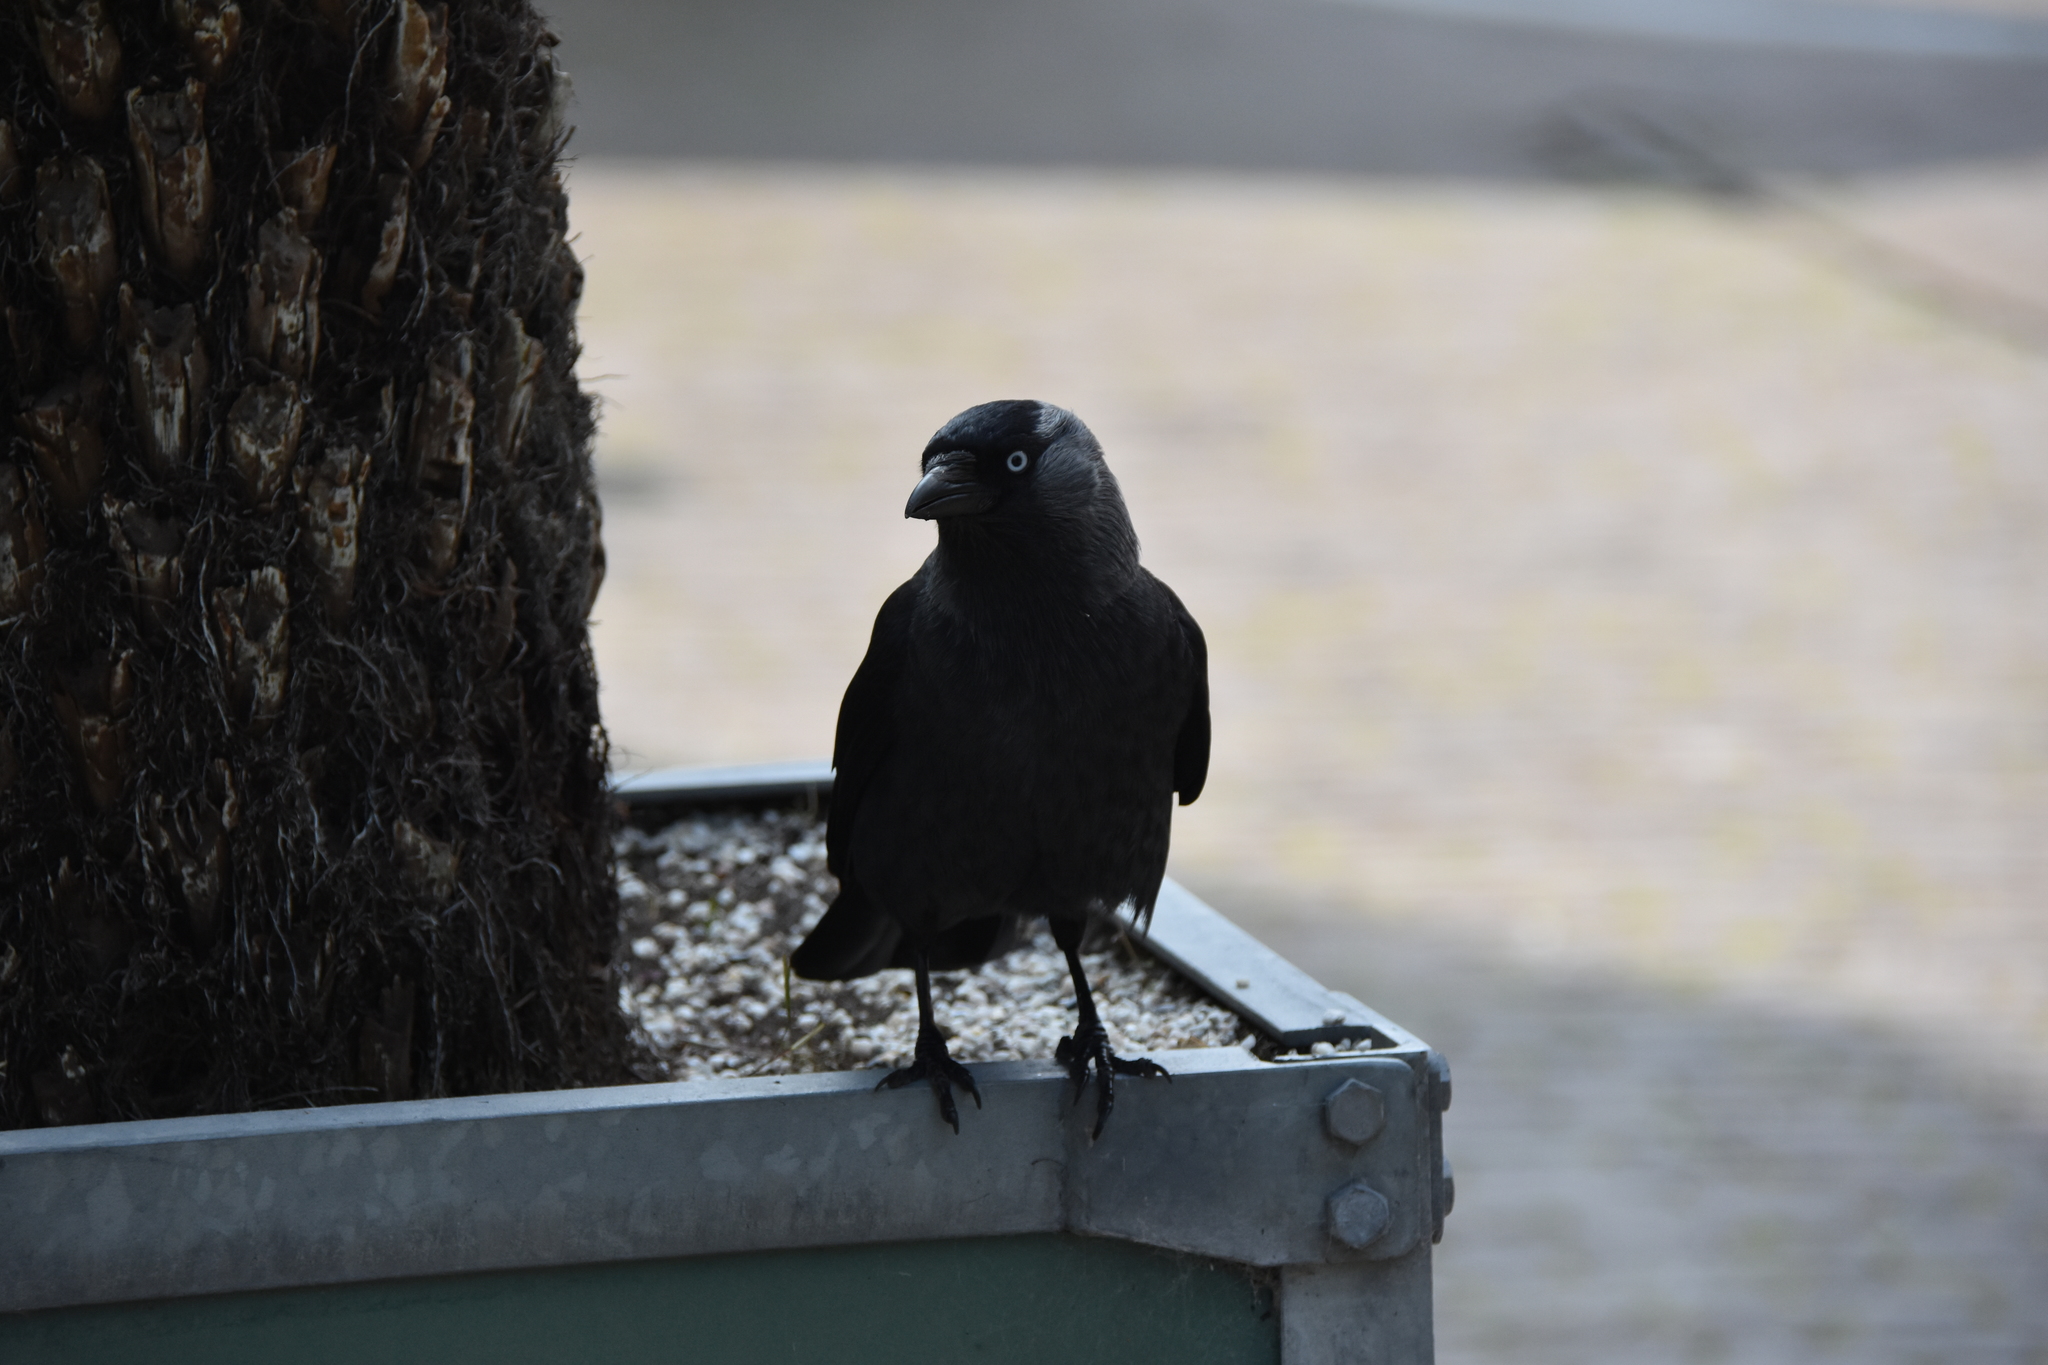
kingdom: Animalia
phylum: Chordata
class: Aves
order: Passeriformes
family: Corvidae
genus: Coloeus
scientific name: Coloeus monedula
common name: Western jackdaw
